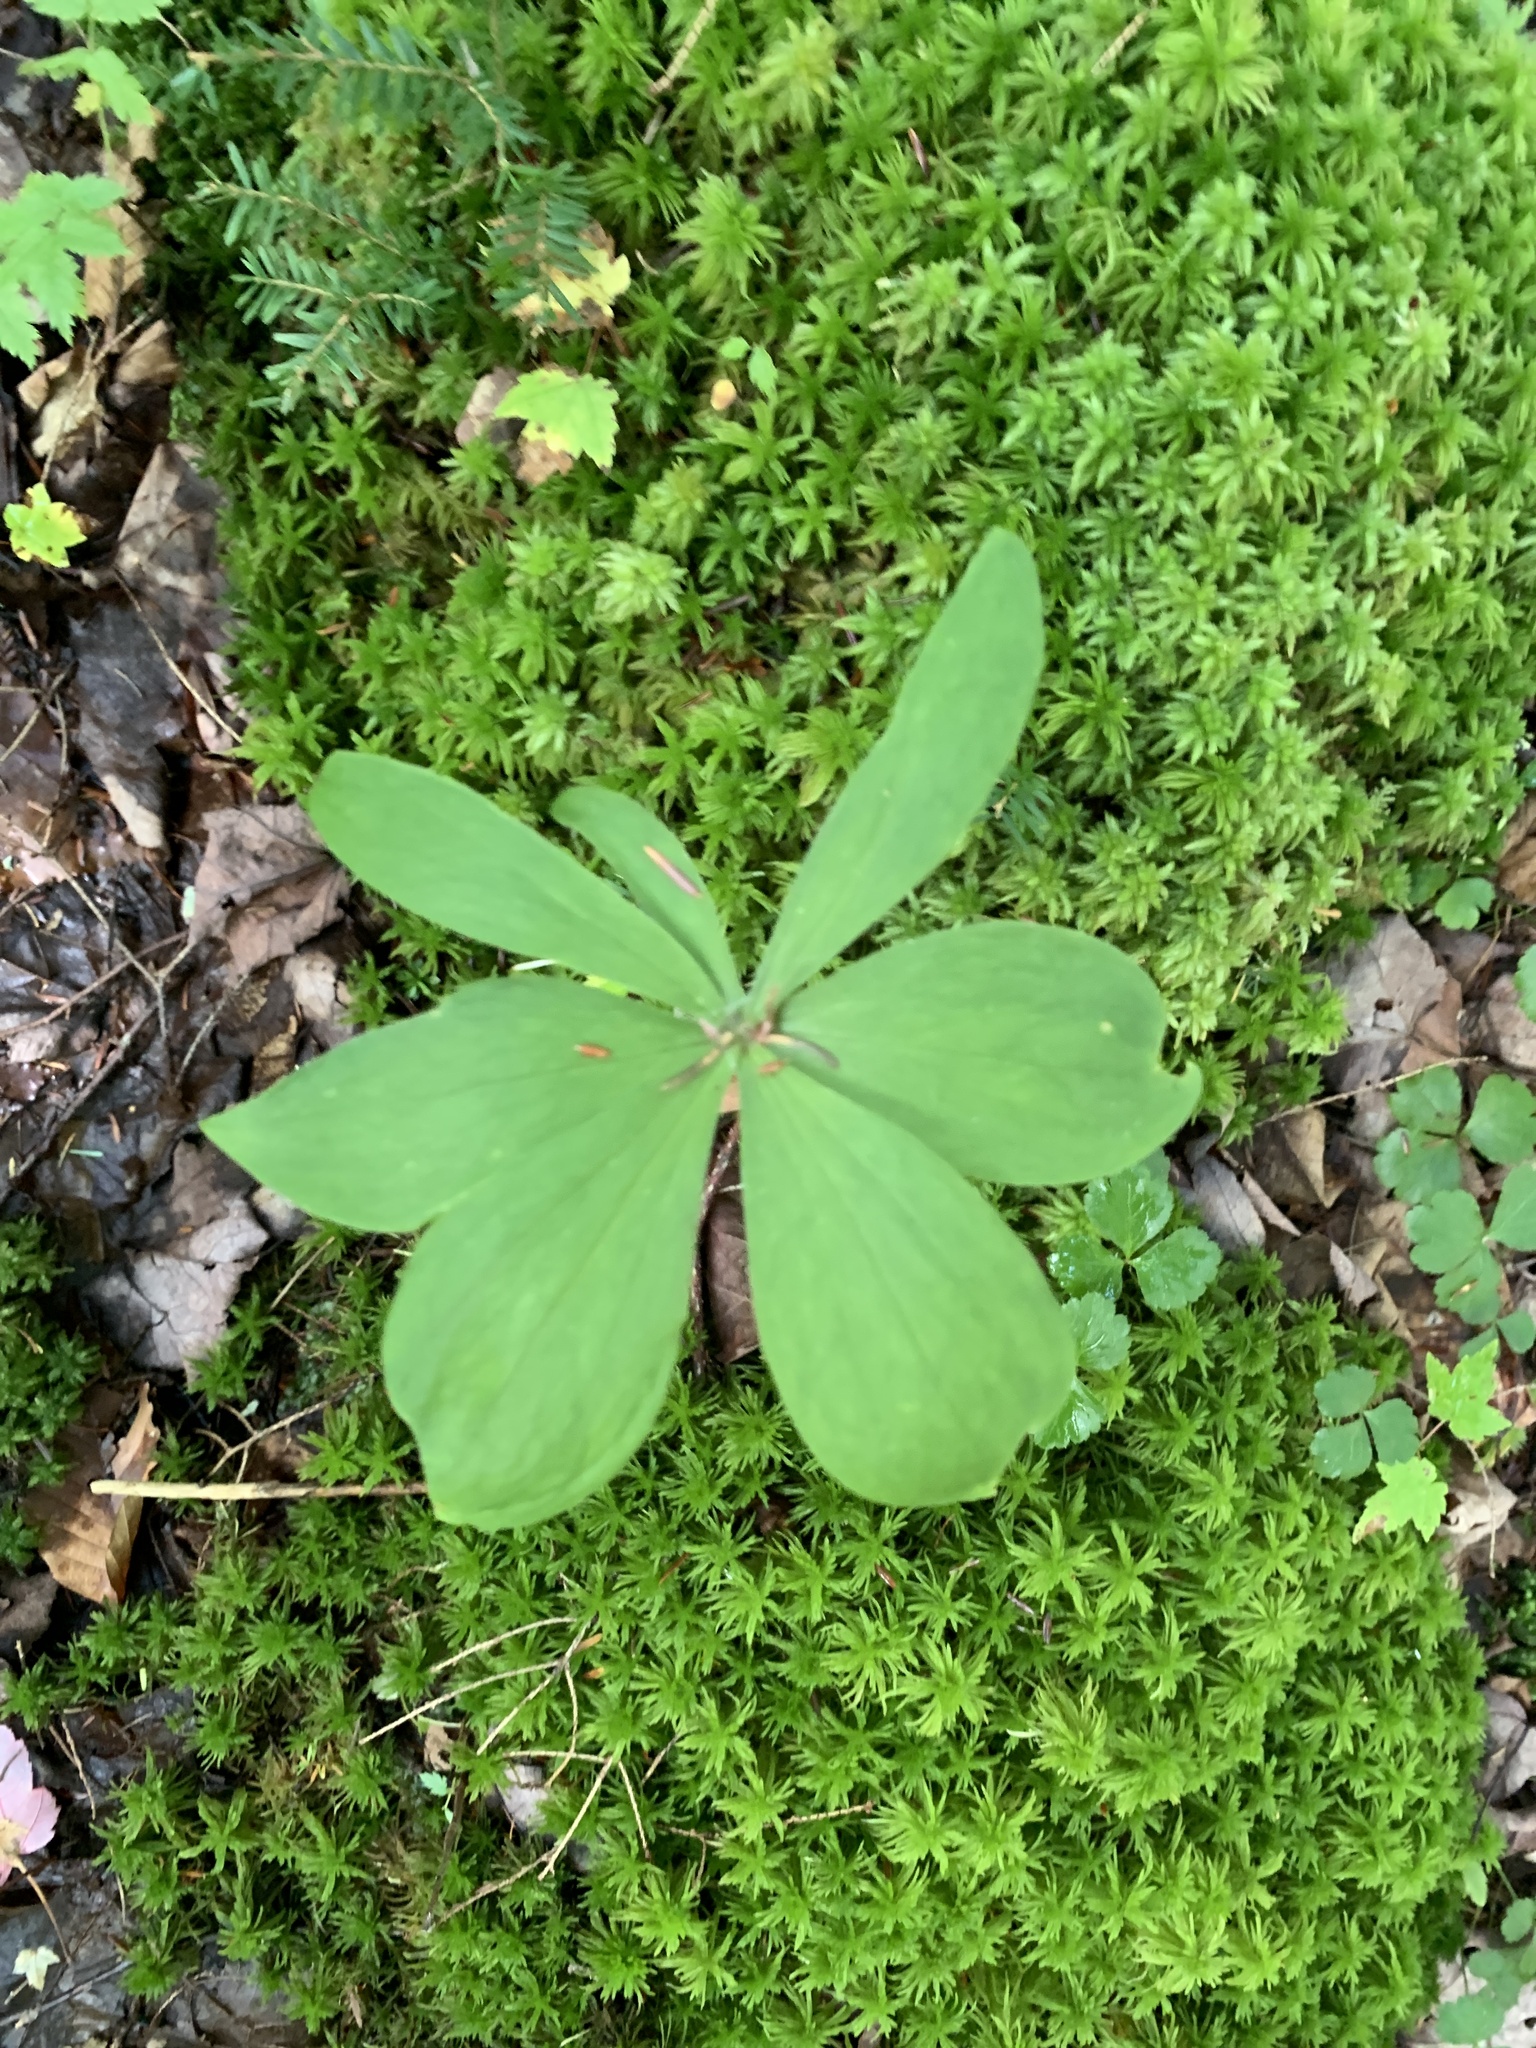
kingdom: Plantae
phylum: Tracheophyta
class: Liliopsida
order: Liliales
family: Liliaceae
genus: Medeola
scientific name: Medeola virginiana
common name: Indian cucumber-root
